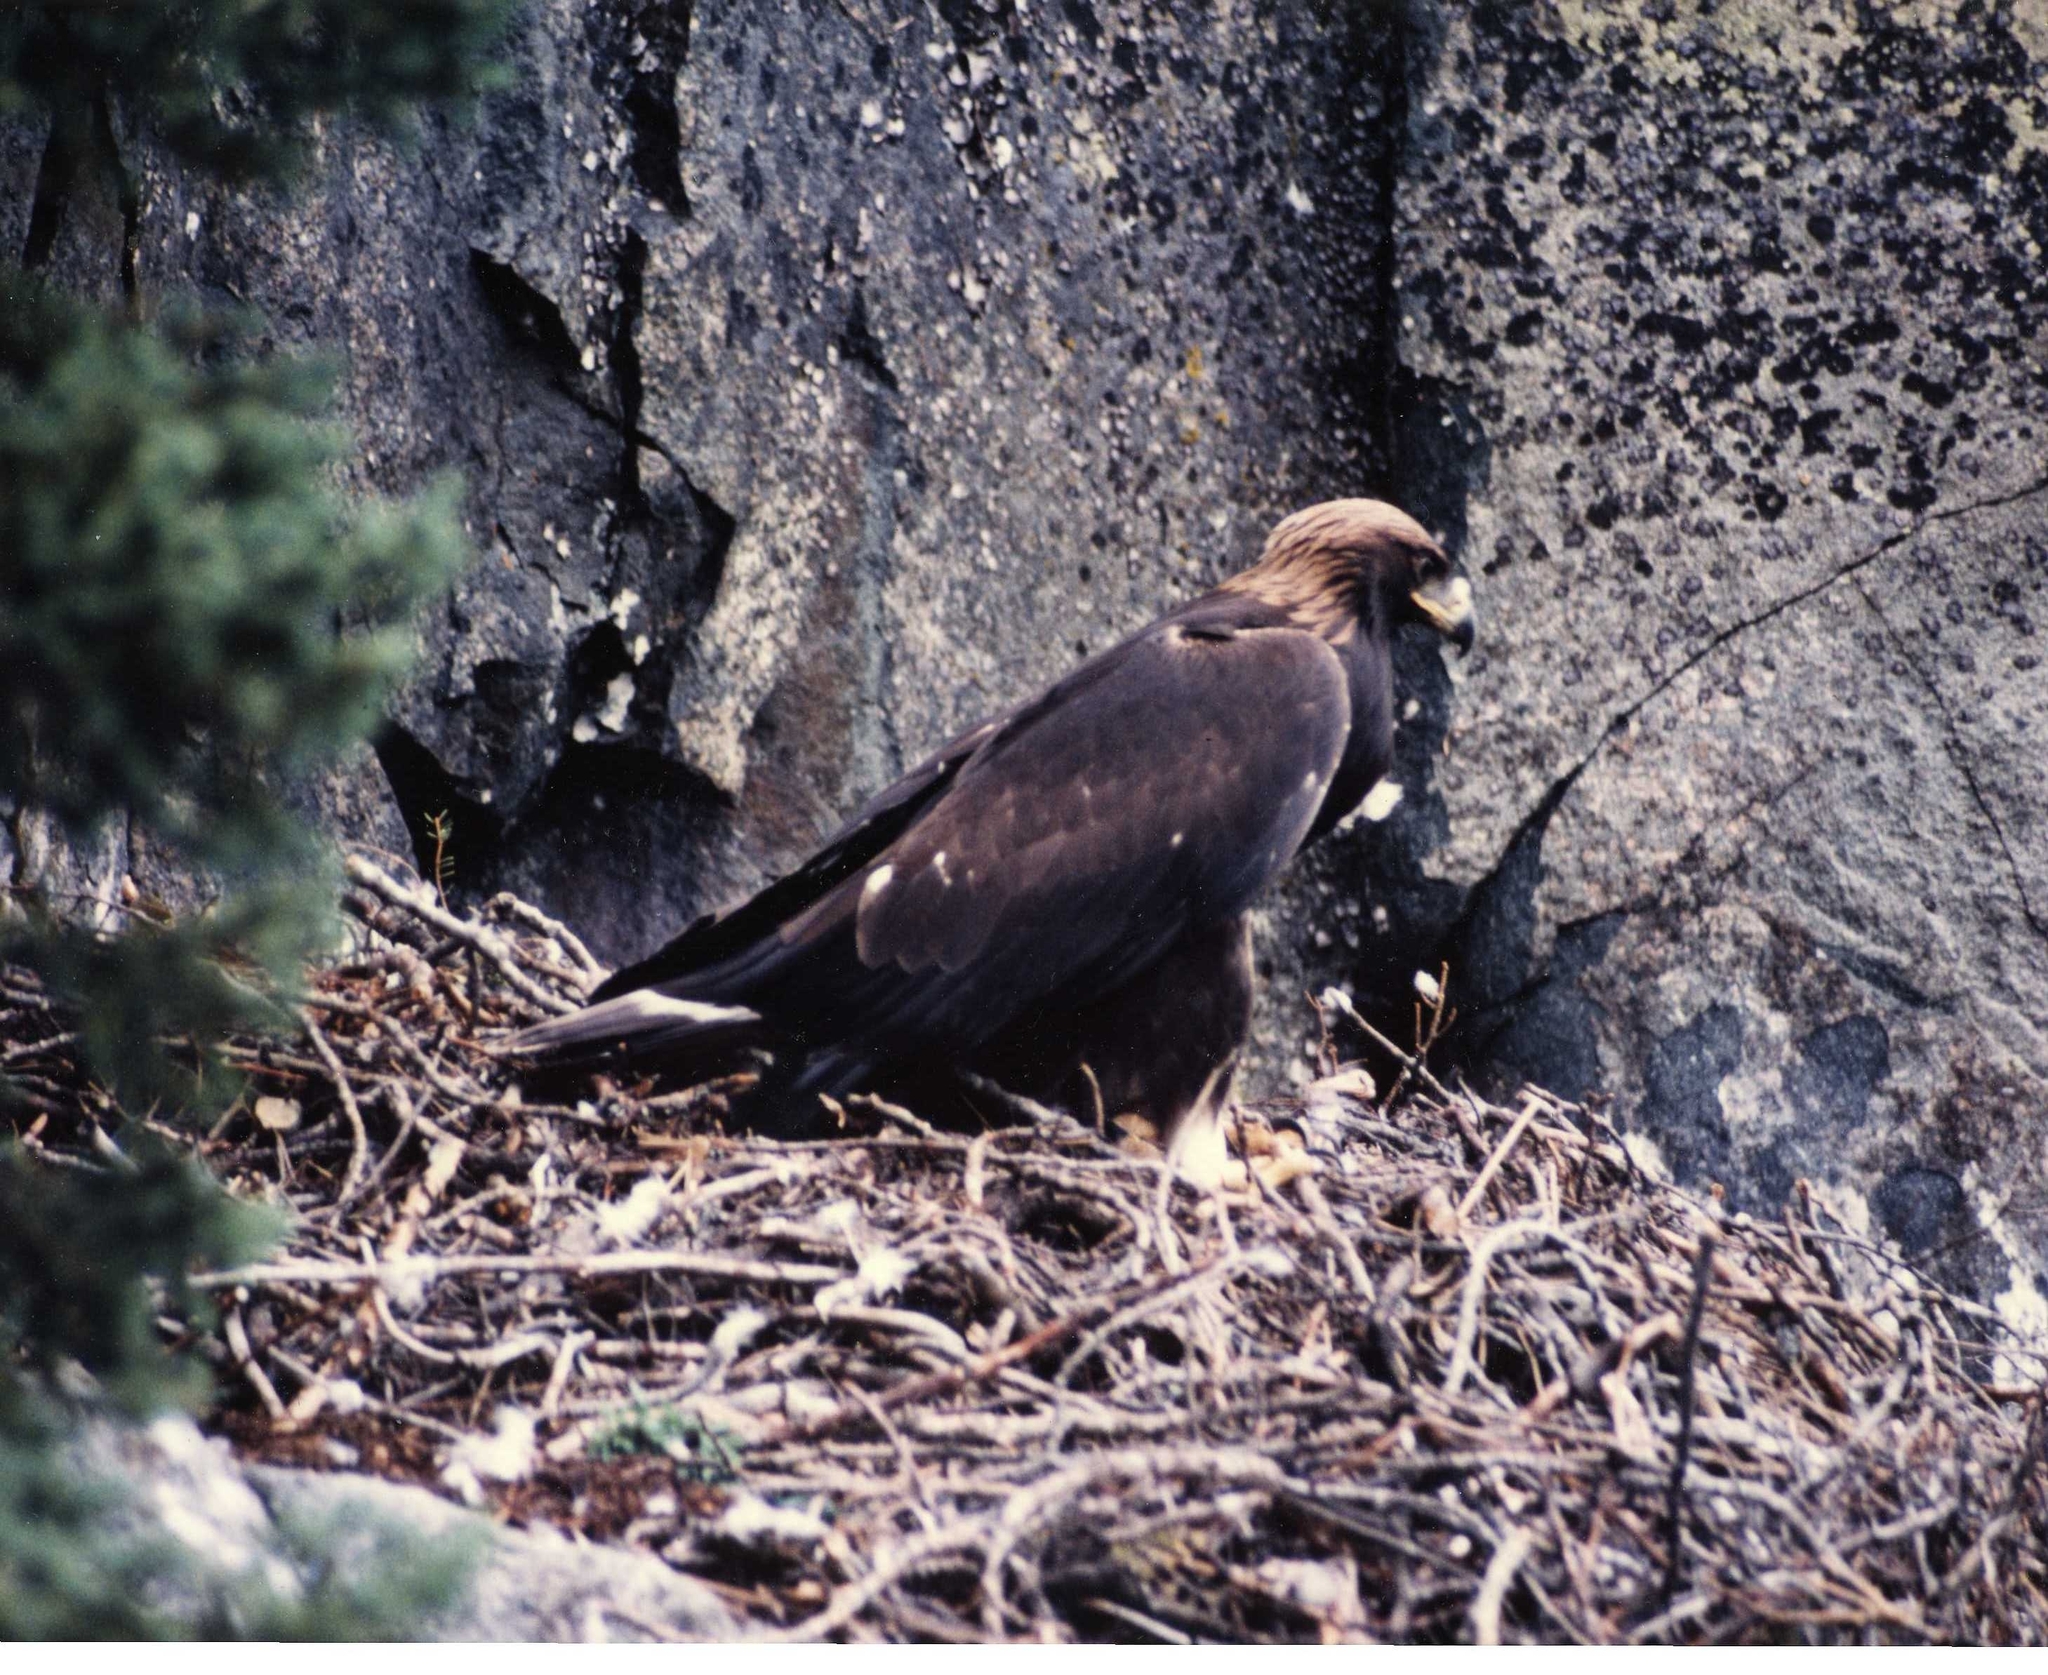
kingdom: Animalia
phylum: Chordata
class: Aves
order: Accipitriformes
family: Accipitridae
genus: Aquila
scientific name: Aquila chrysaetos
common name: Golden eagle
